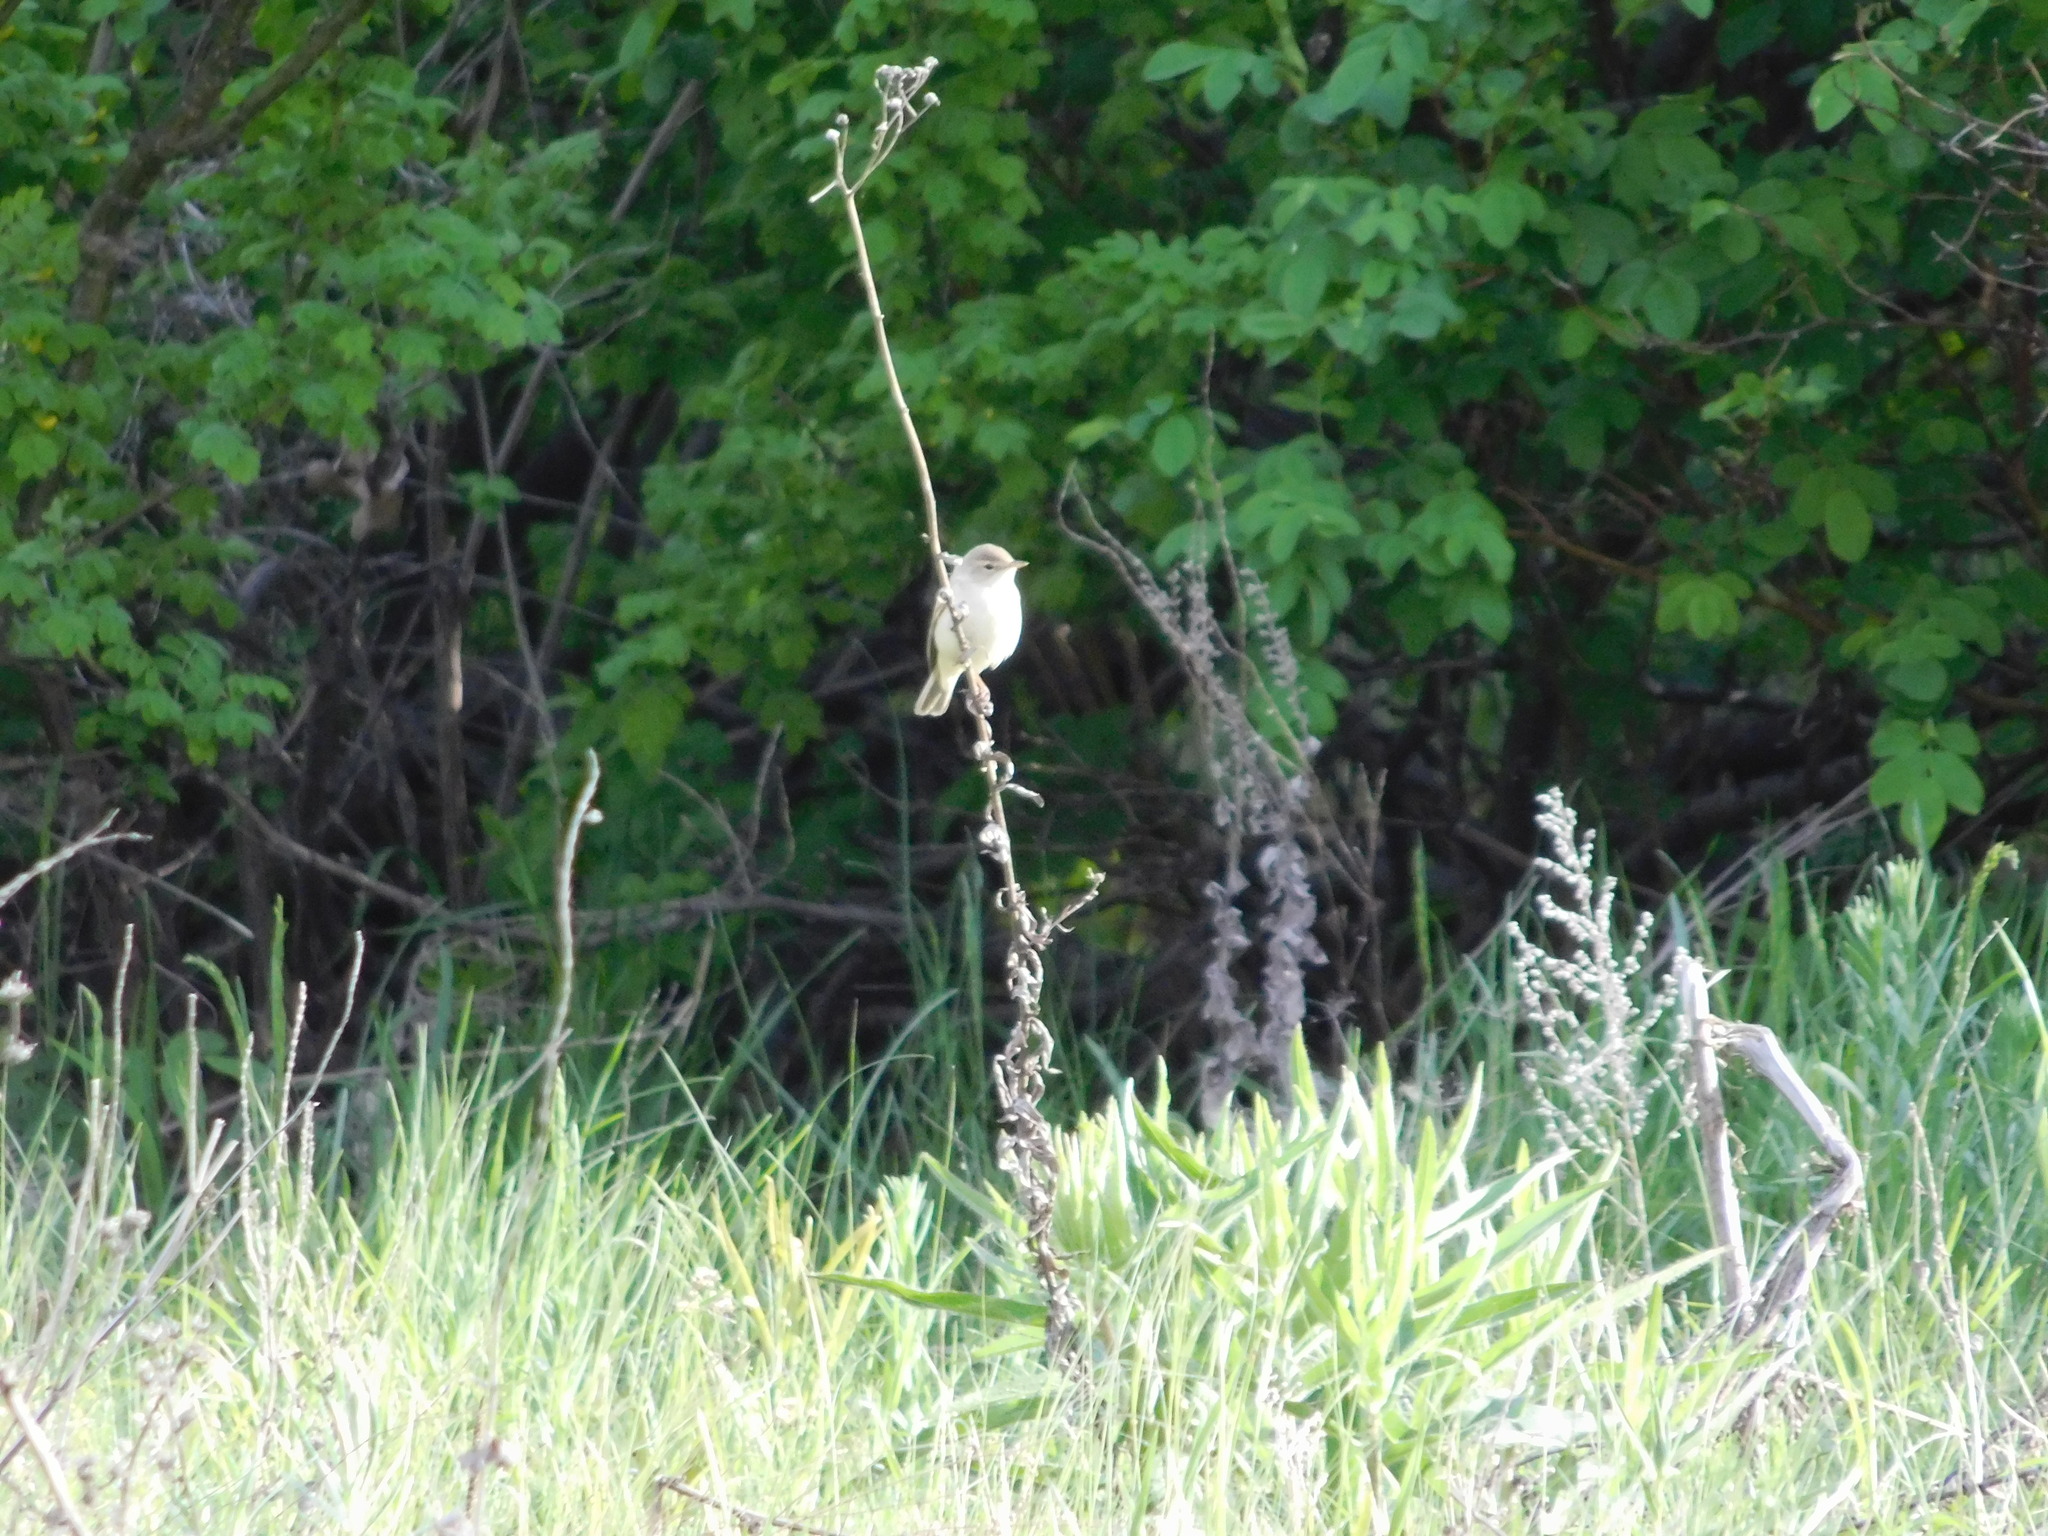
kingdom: Animalia
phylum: Chordata
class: Aves
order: Passeriformes
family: Acrocephalidae
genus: Iduna
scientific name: Iduna caligata
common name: Booted warbler
